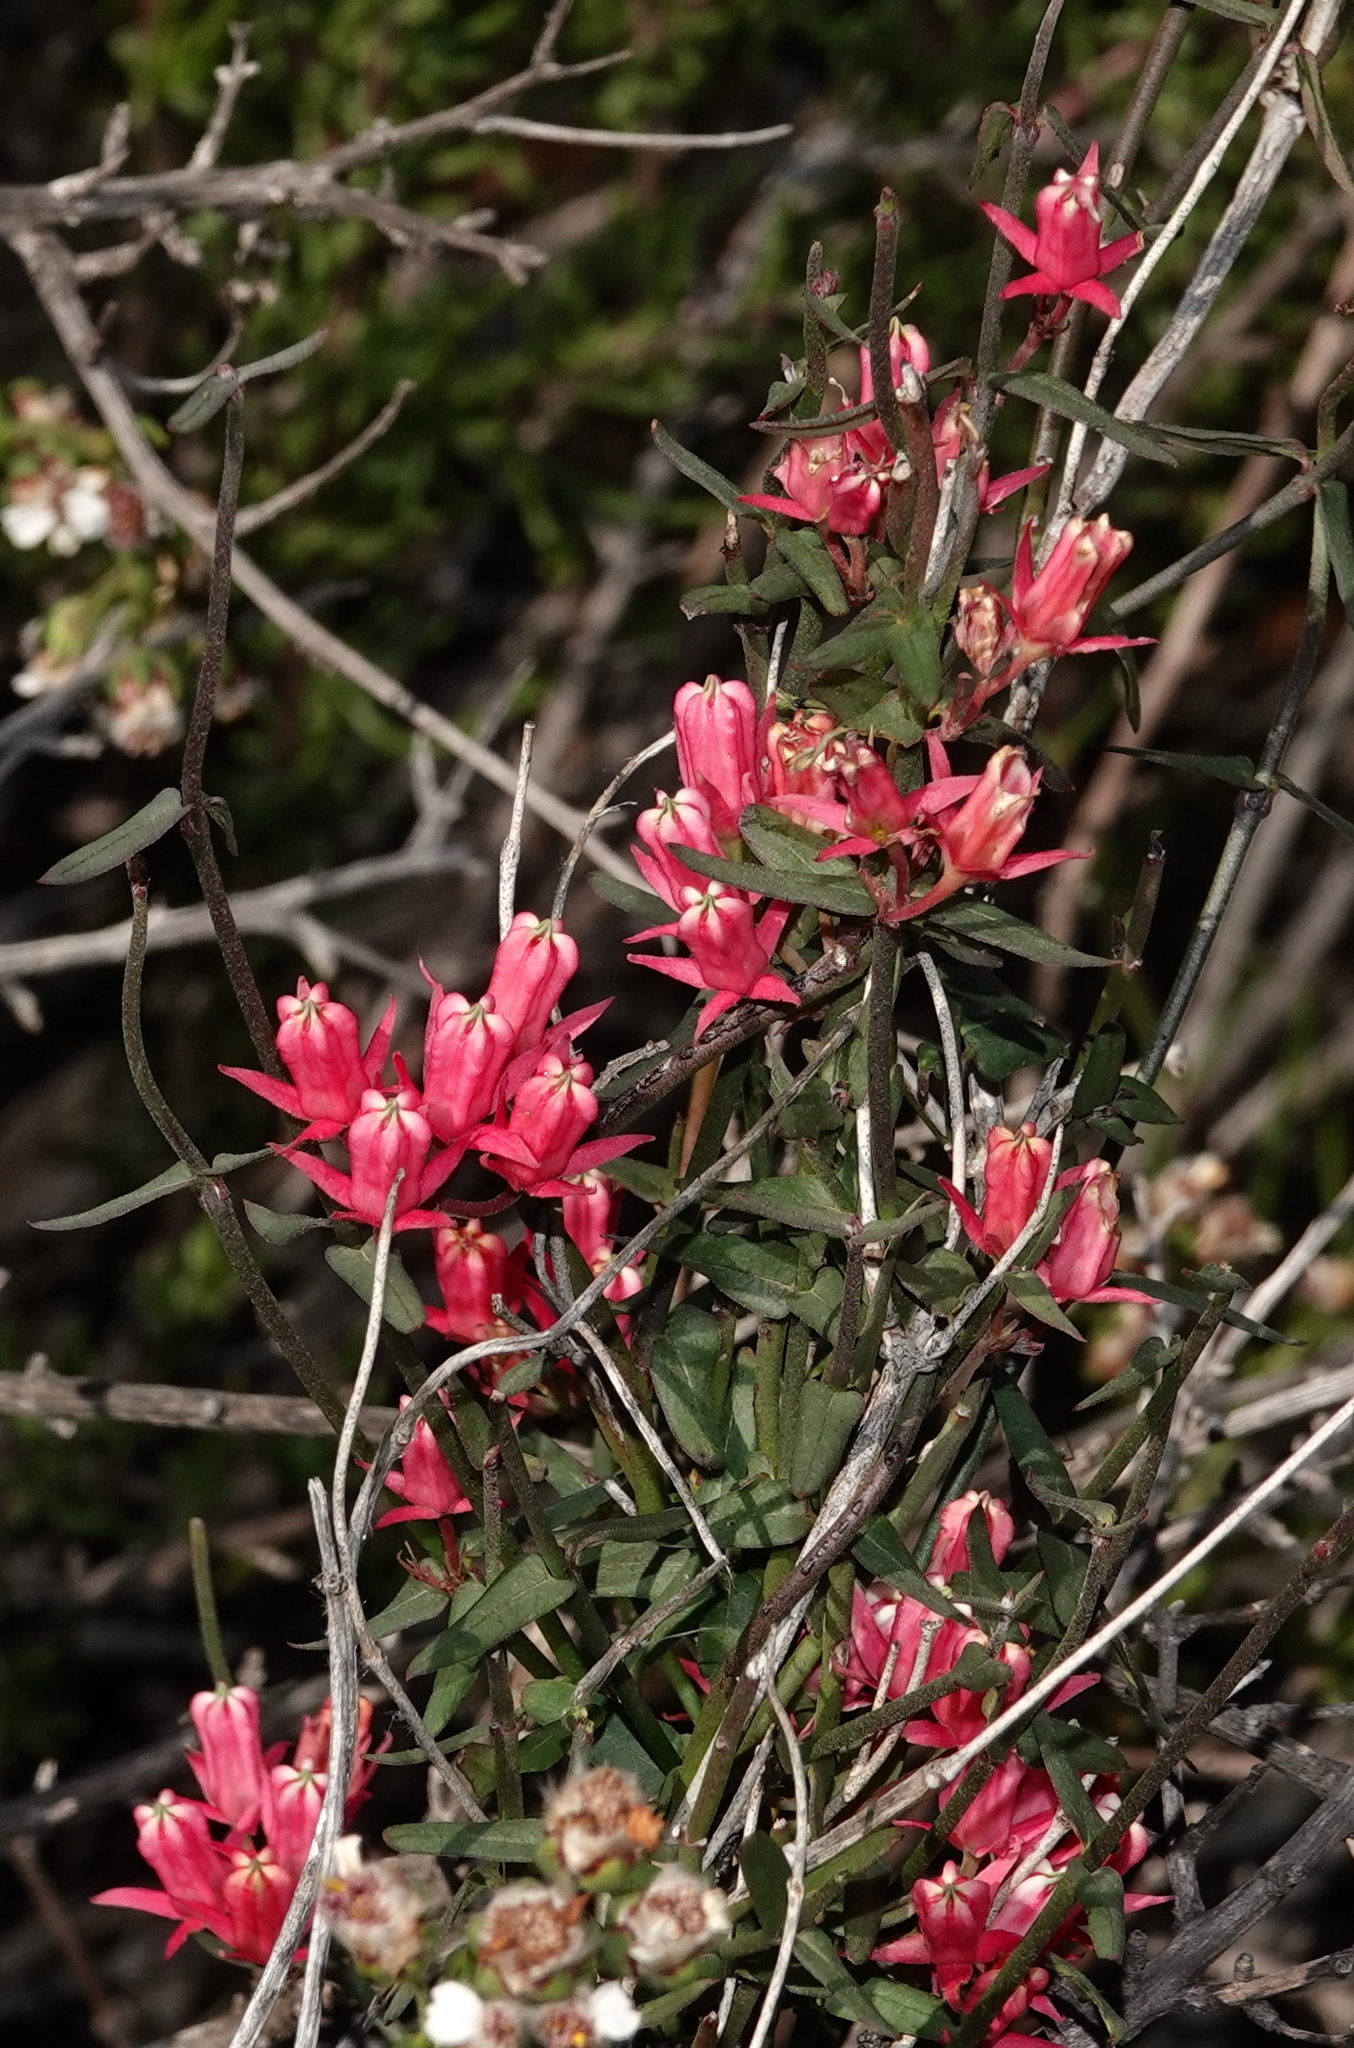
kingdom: Plantae
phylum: Tracheophyta
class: Magnoliopsida
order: Gentianales
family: Apocynaceae
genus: Microloma
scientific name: Microloma sagittatum
